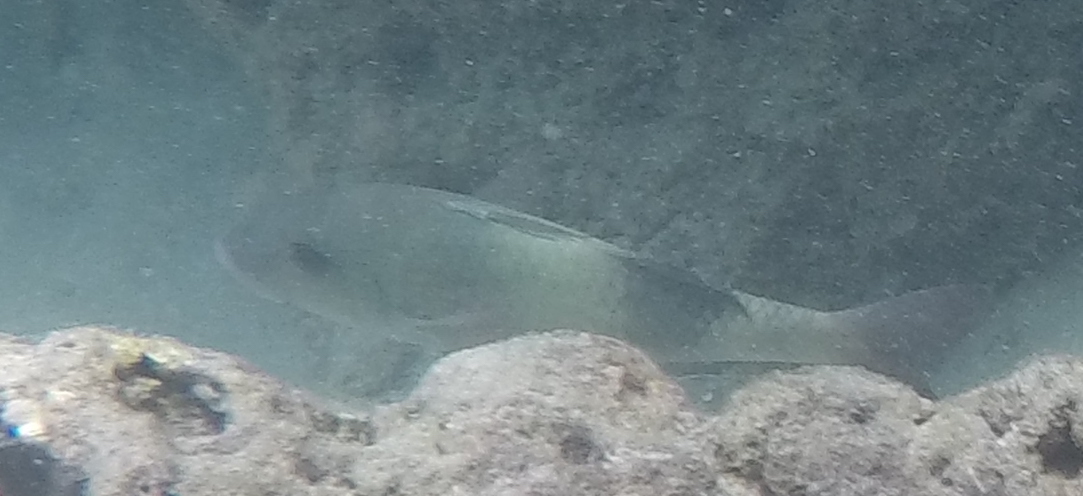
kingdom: Animalia
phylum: Chordata
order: Perciformes
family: Mullidae
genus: Parupeneus
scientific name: Parupeneus insularis
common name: Doublebar goatfish
